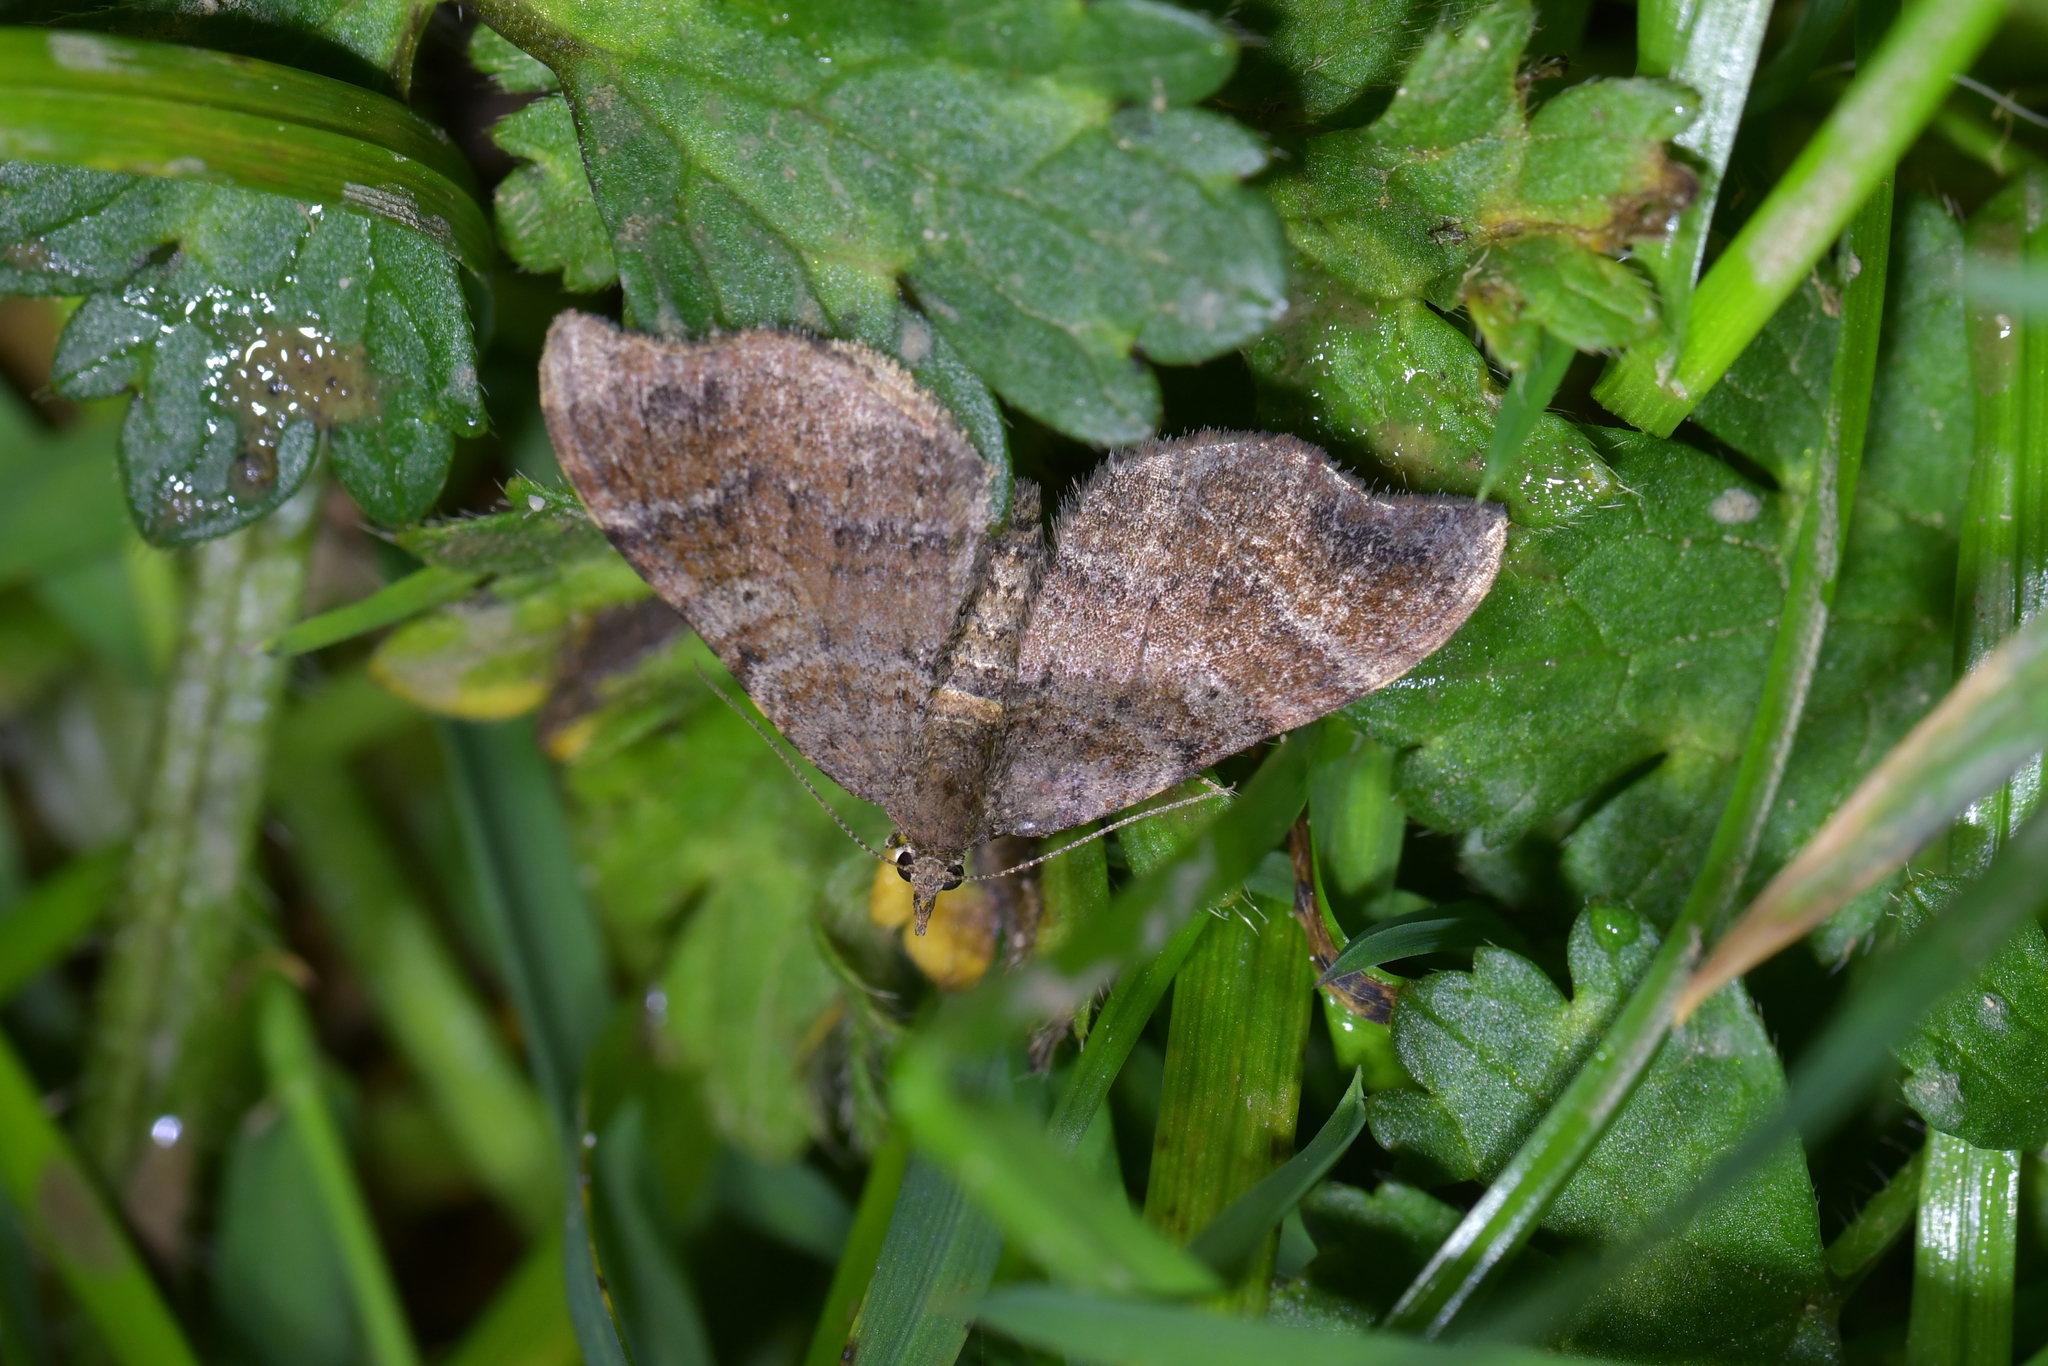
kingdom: Animalia
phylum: Arthropoda
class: Insecta
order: Lepidoptera
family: Geometridae
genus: Homodotis
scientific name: Homodotis megaspilata
